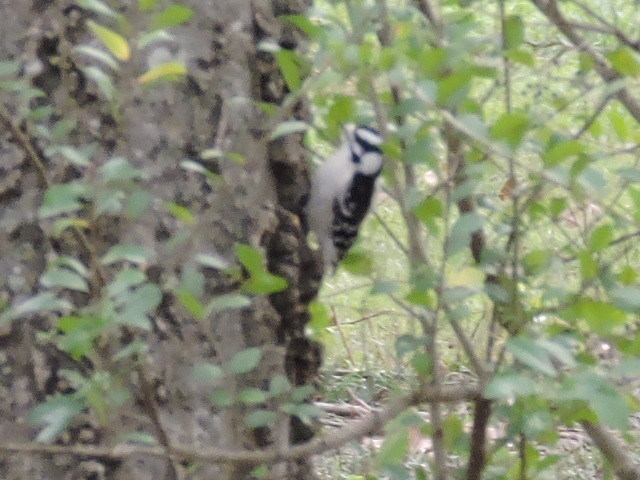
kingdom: Animalia
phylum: Chordata
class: Aves
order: Piciformes
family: Picidae
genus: Dryobates
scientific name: Dryobates pubescens
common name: Downy woodpecker
